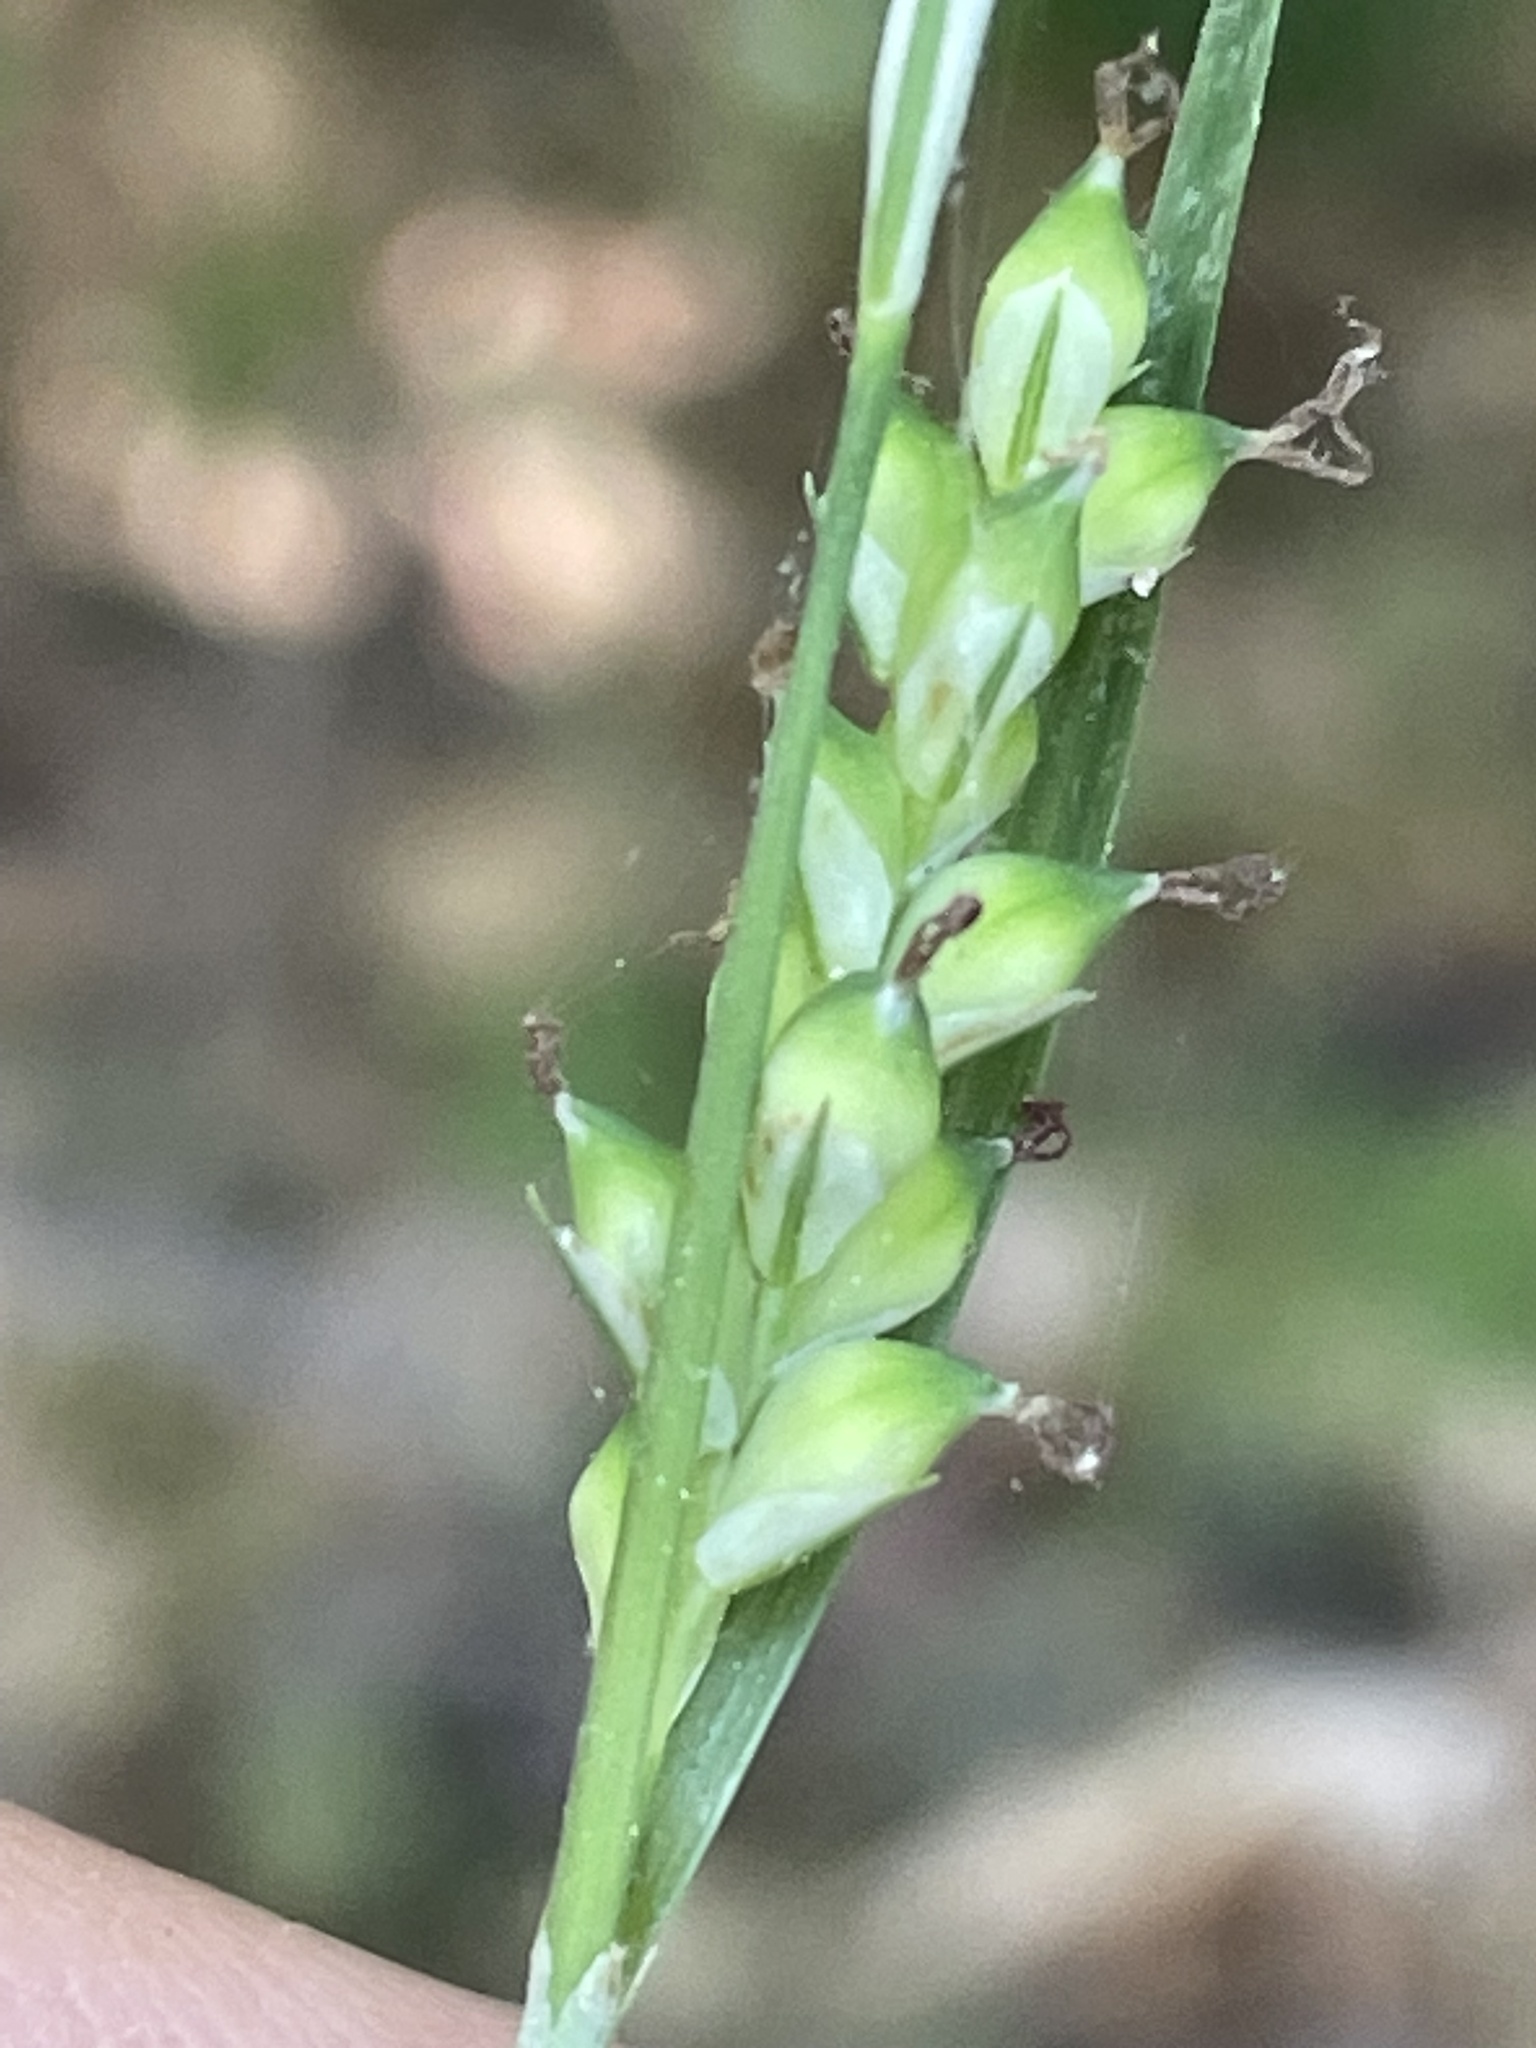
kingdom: Plantae
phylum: Tracheophyta
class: Liliopsida
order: Poales
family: Cyperaceae
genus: Carex
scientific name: Carex blanda
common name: Bland sedge
